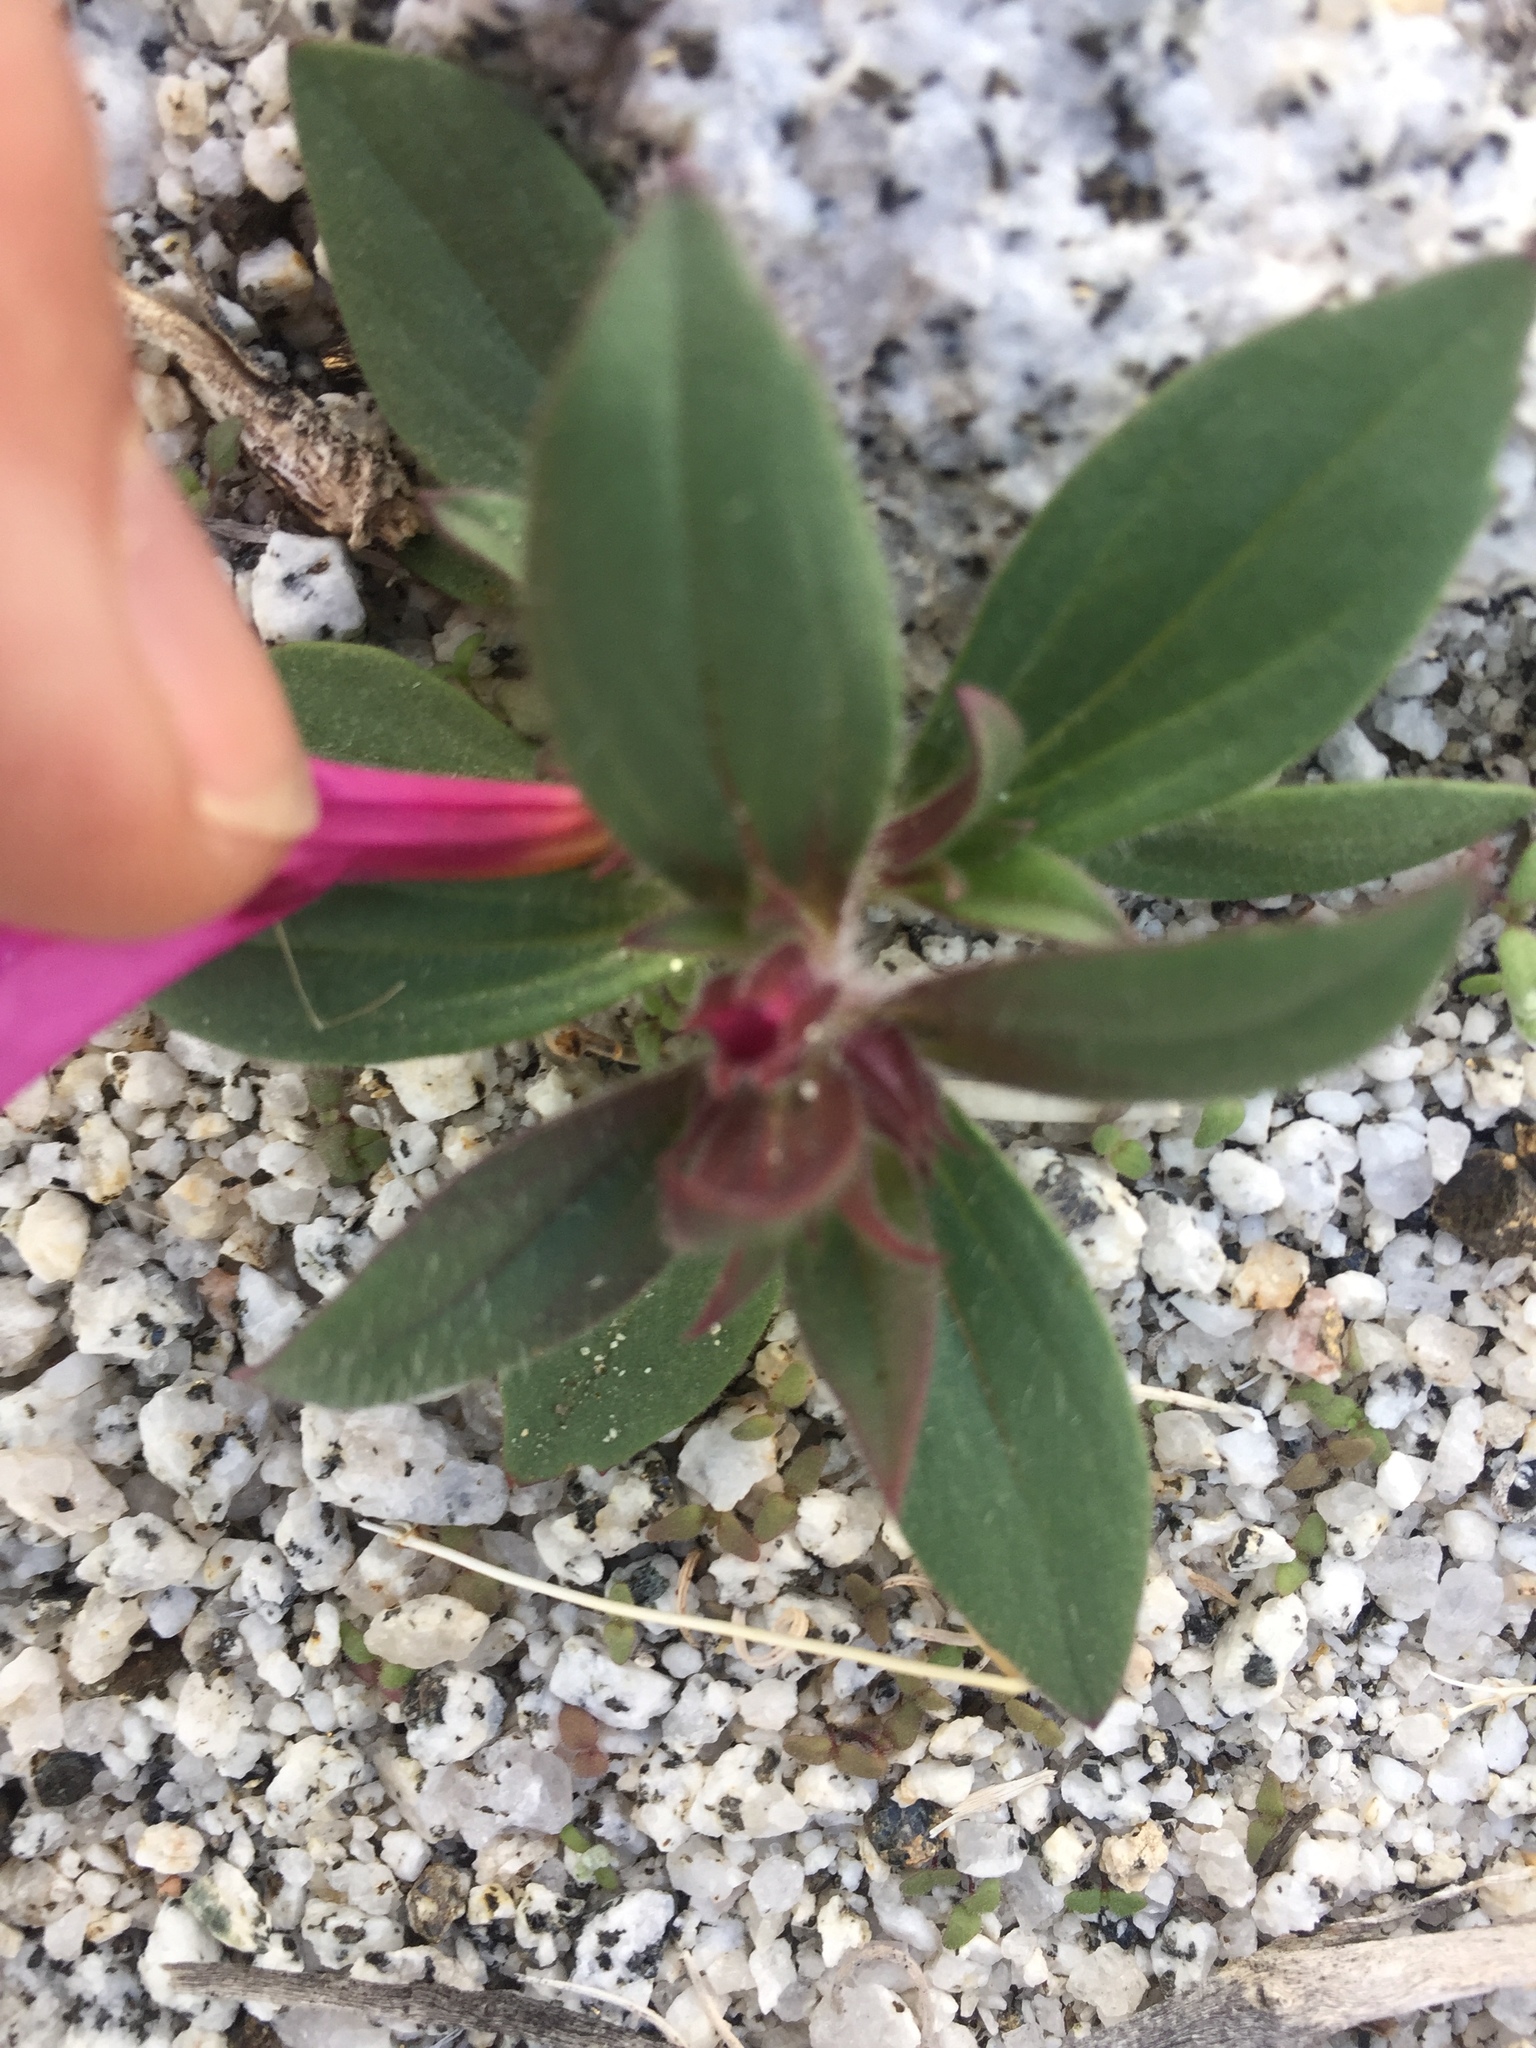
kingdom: Plantae
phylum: Tracheophyta
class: Magnoliopsida
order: Lamiales
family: Phrymaceae
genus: Diplacus
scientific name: Diplacus bigelovii
